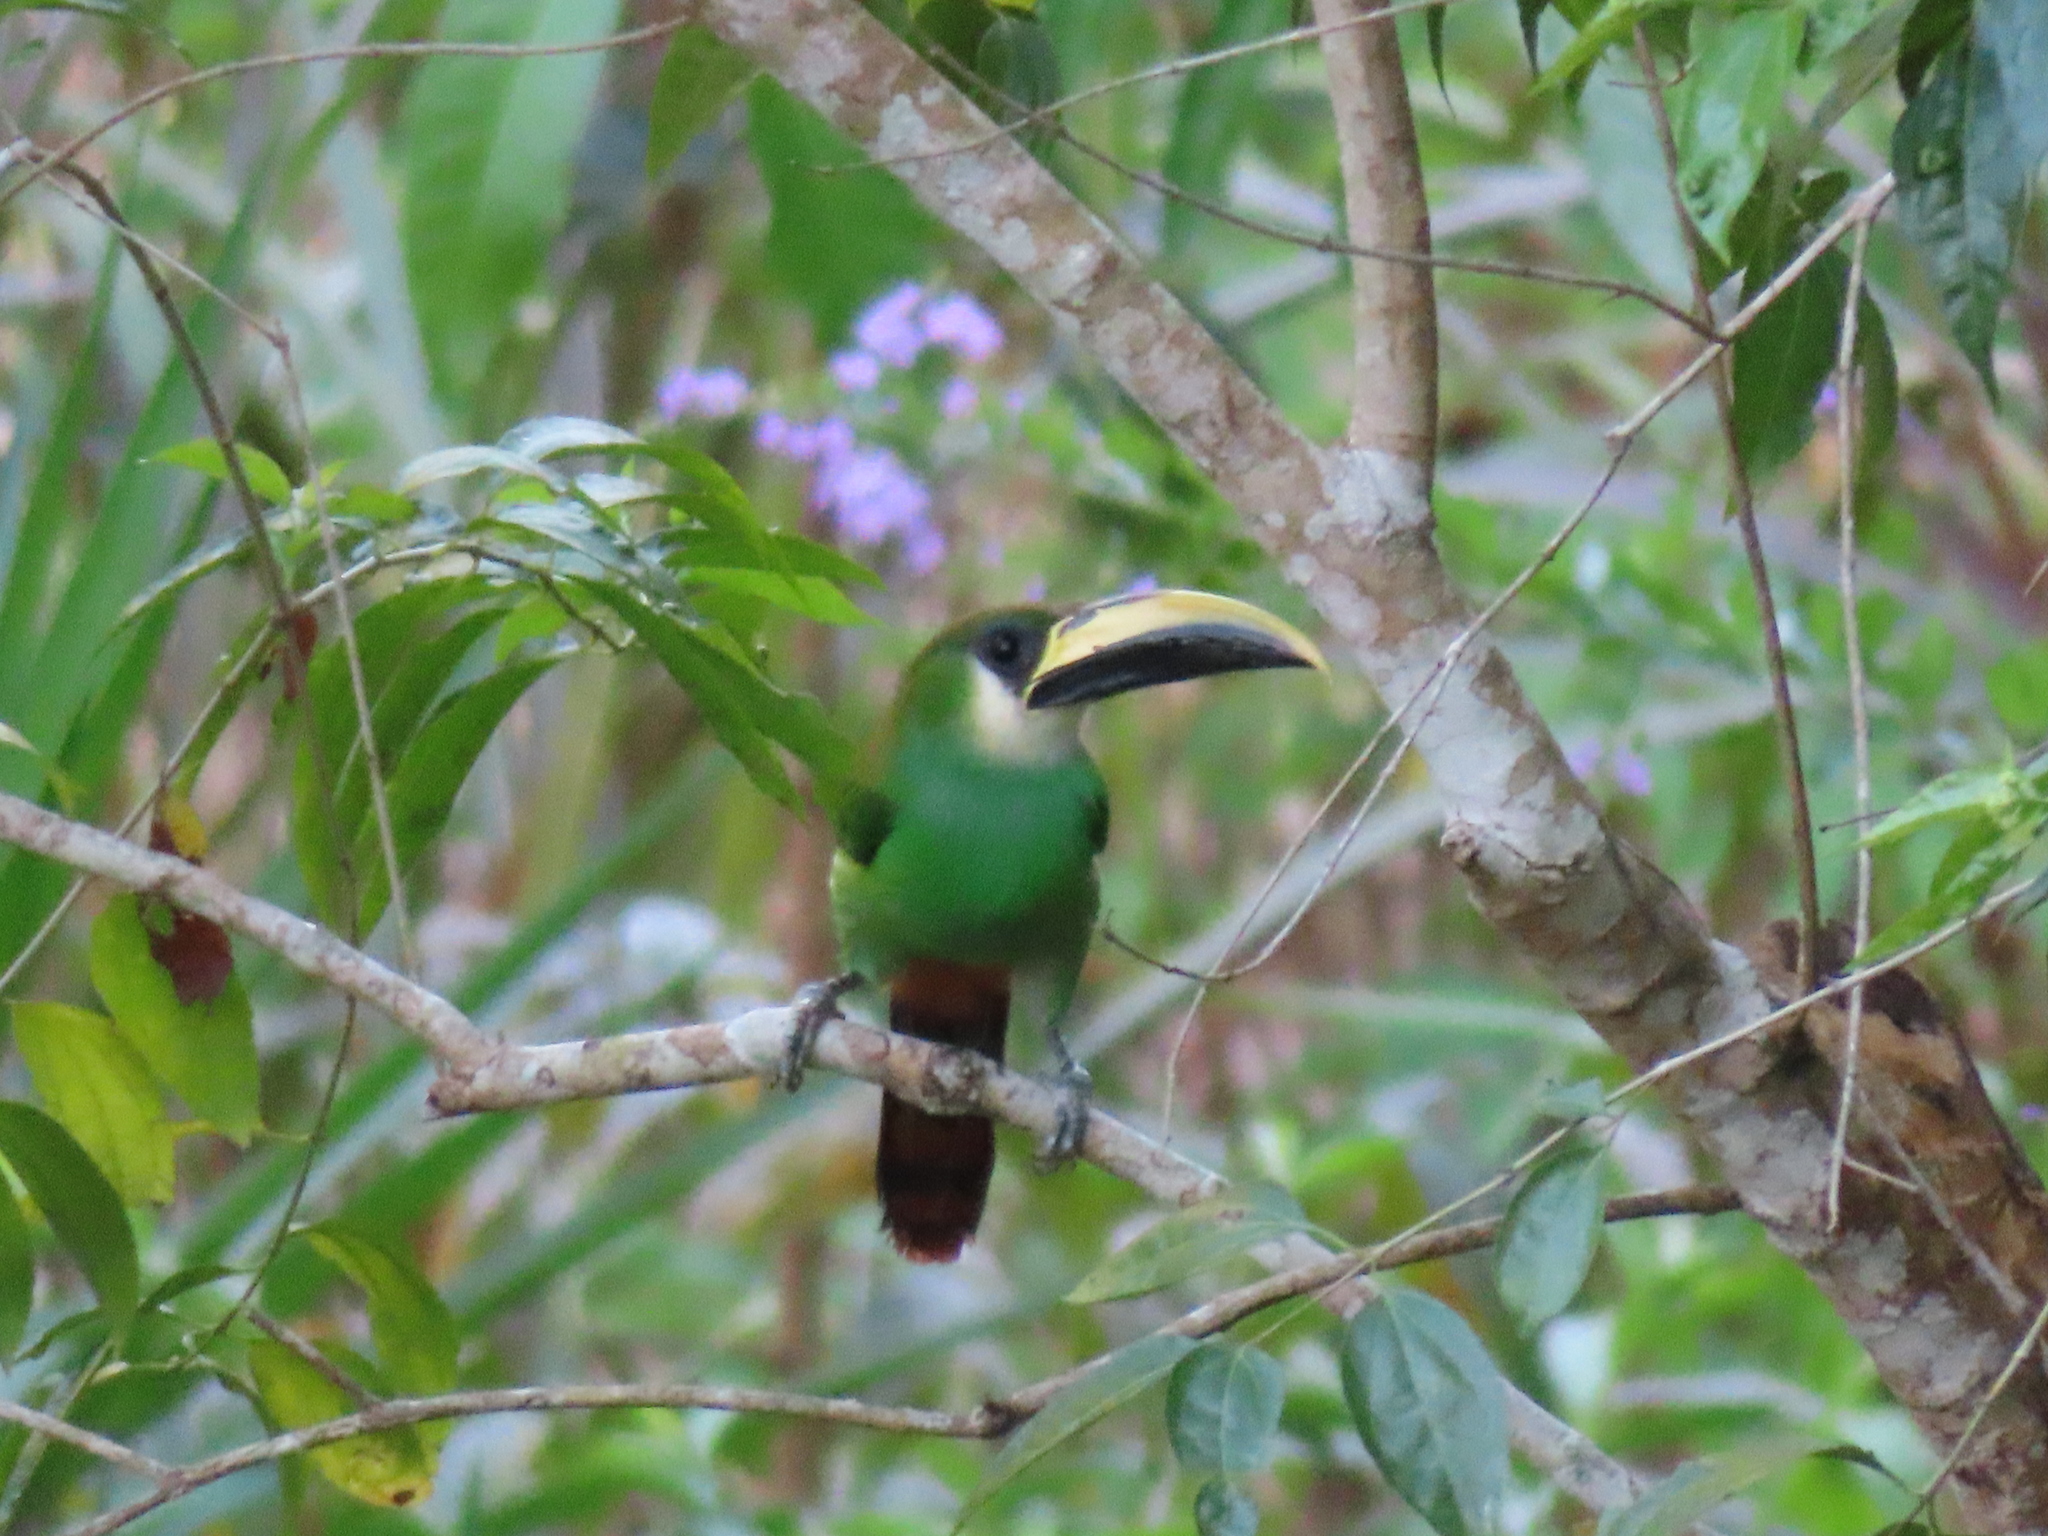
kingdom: Animalia
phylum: Chordata
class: Aves
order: Piciformes
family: Ramphastidae
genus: Aulacorhynchus
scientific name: Aulacorhynchus prasinus
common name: Emerald toucanet
